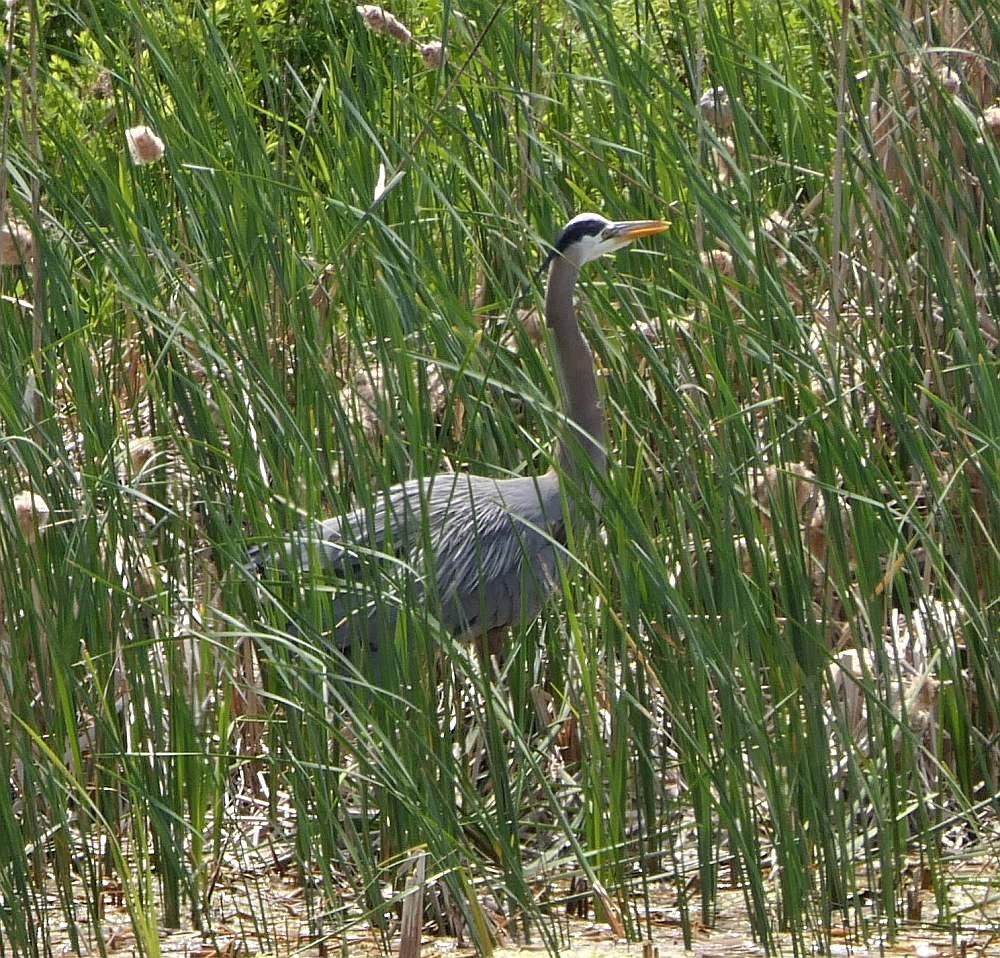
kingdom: Animalia
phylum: Chordata
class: Aves
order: Pelecaniformes
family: Ardeidae
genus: Ardea
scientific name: Ardea herodias
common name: Great blue heron
